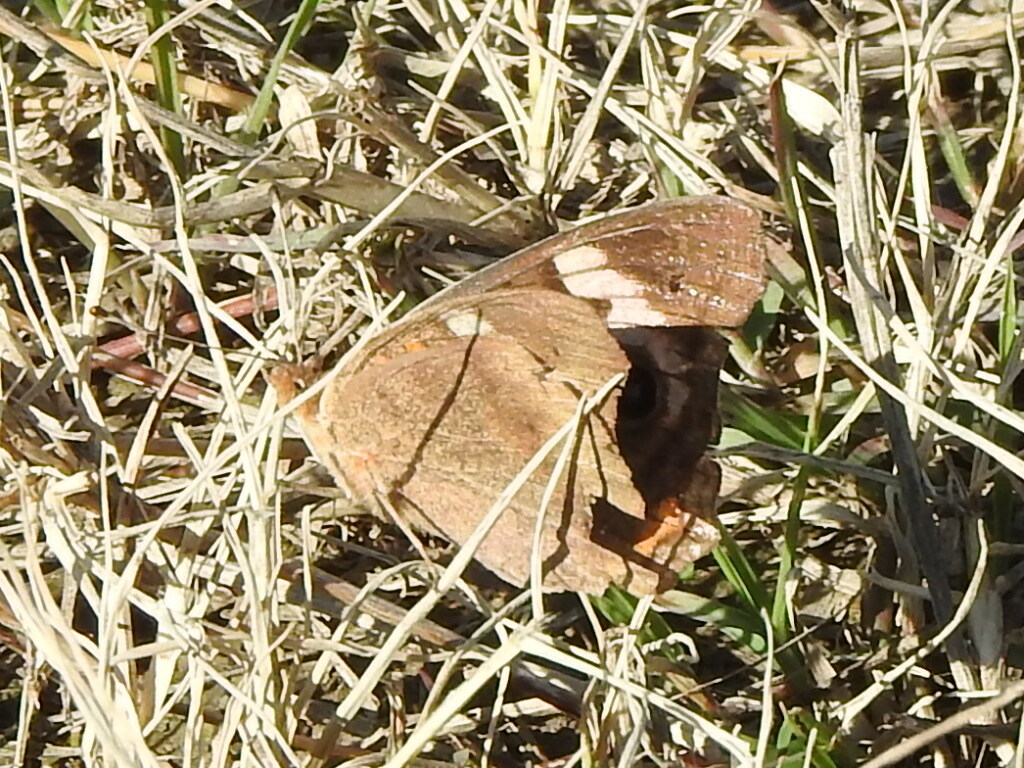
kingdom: Animalia
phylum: Arthropoda
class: Insecta
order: Lepidoptera
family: Nymphalidae
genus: Junonia
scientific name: Junonia coenia
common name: Common buckeye
